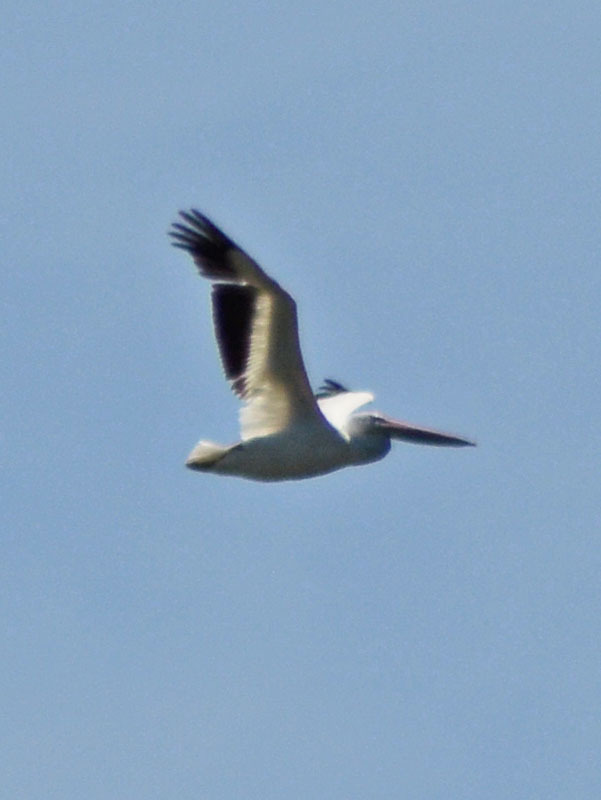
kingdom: Animalia
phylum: Chordata
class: Aves
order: Pelecaniformes
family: Pelecanidae
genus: Pelecanus
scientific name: Pelecanus erythrorhynchos
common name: American white pelican
